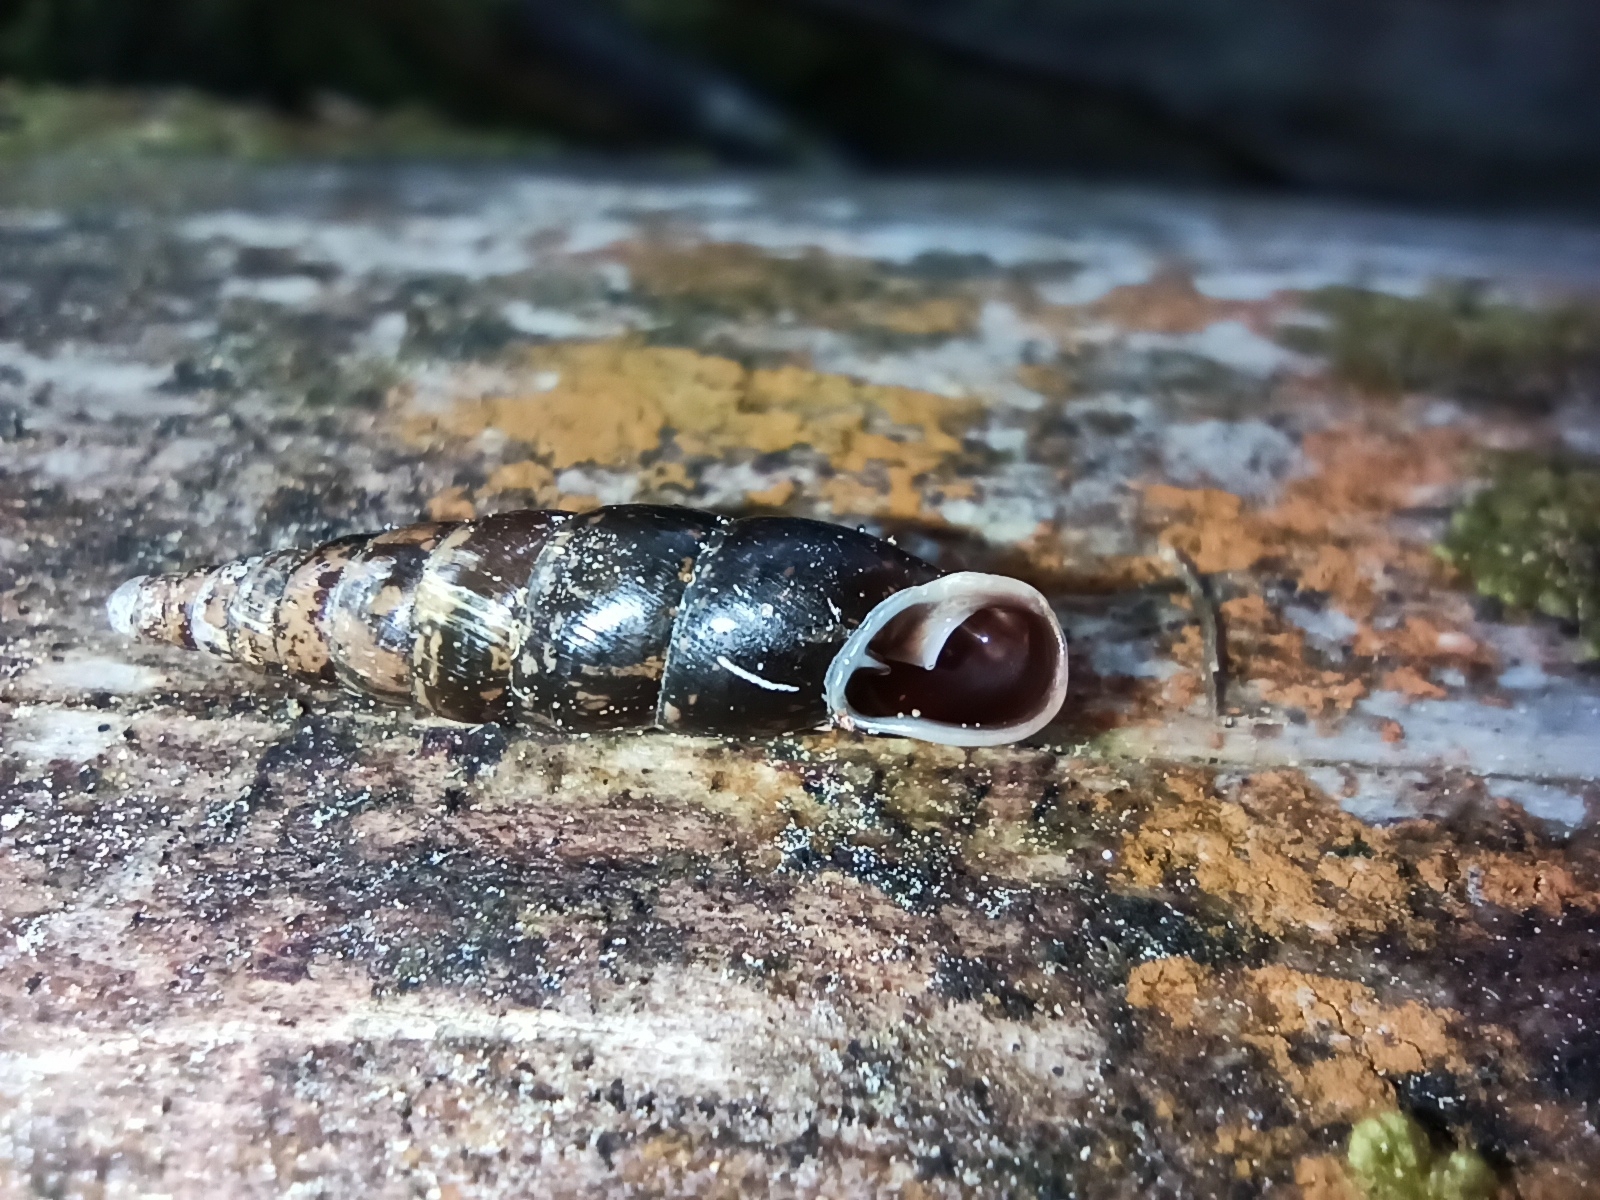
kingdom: Animalia
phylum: Mollusca
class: Gastropoda
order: Stylommatophora
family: Clausiliidae
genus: Cochlodina
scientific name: Cochlodina laminata
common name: Plaited door snail
